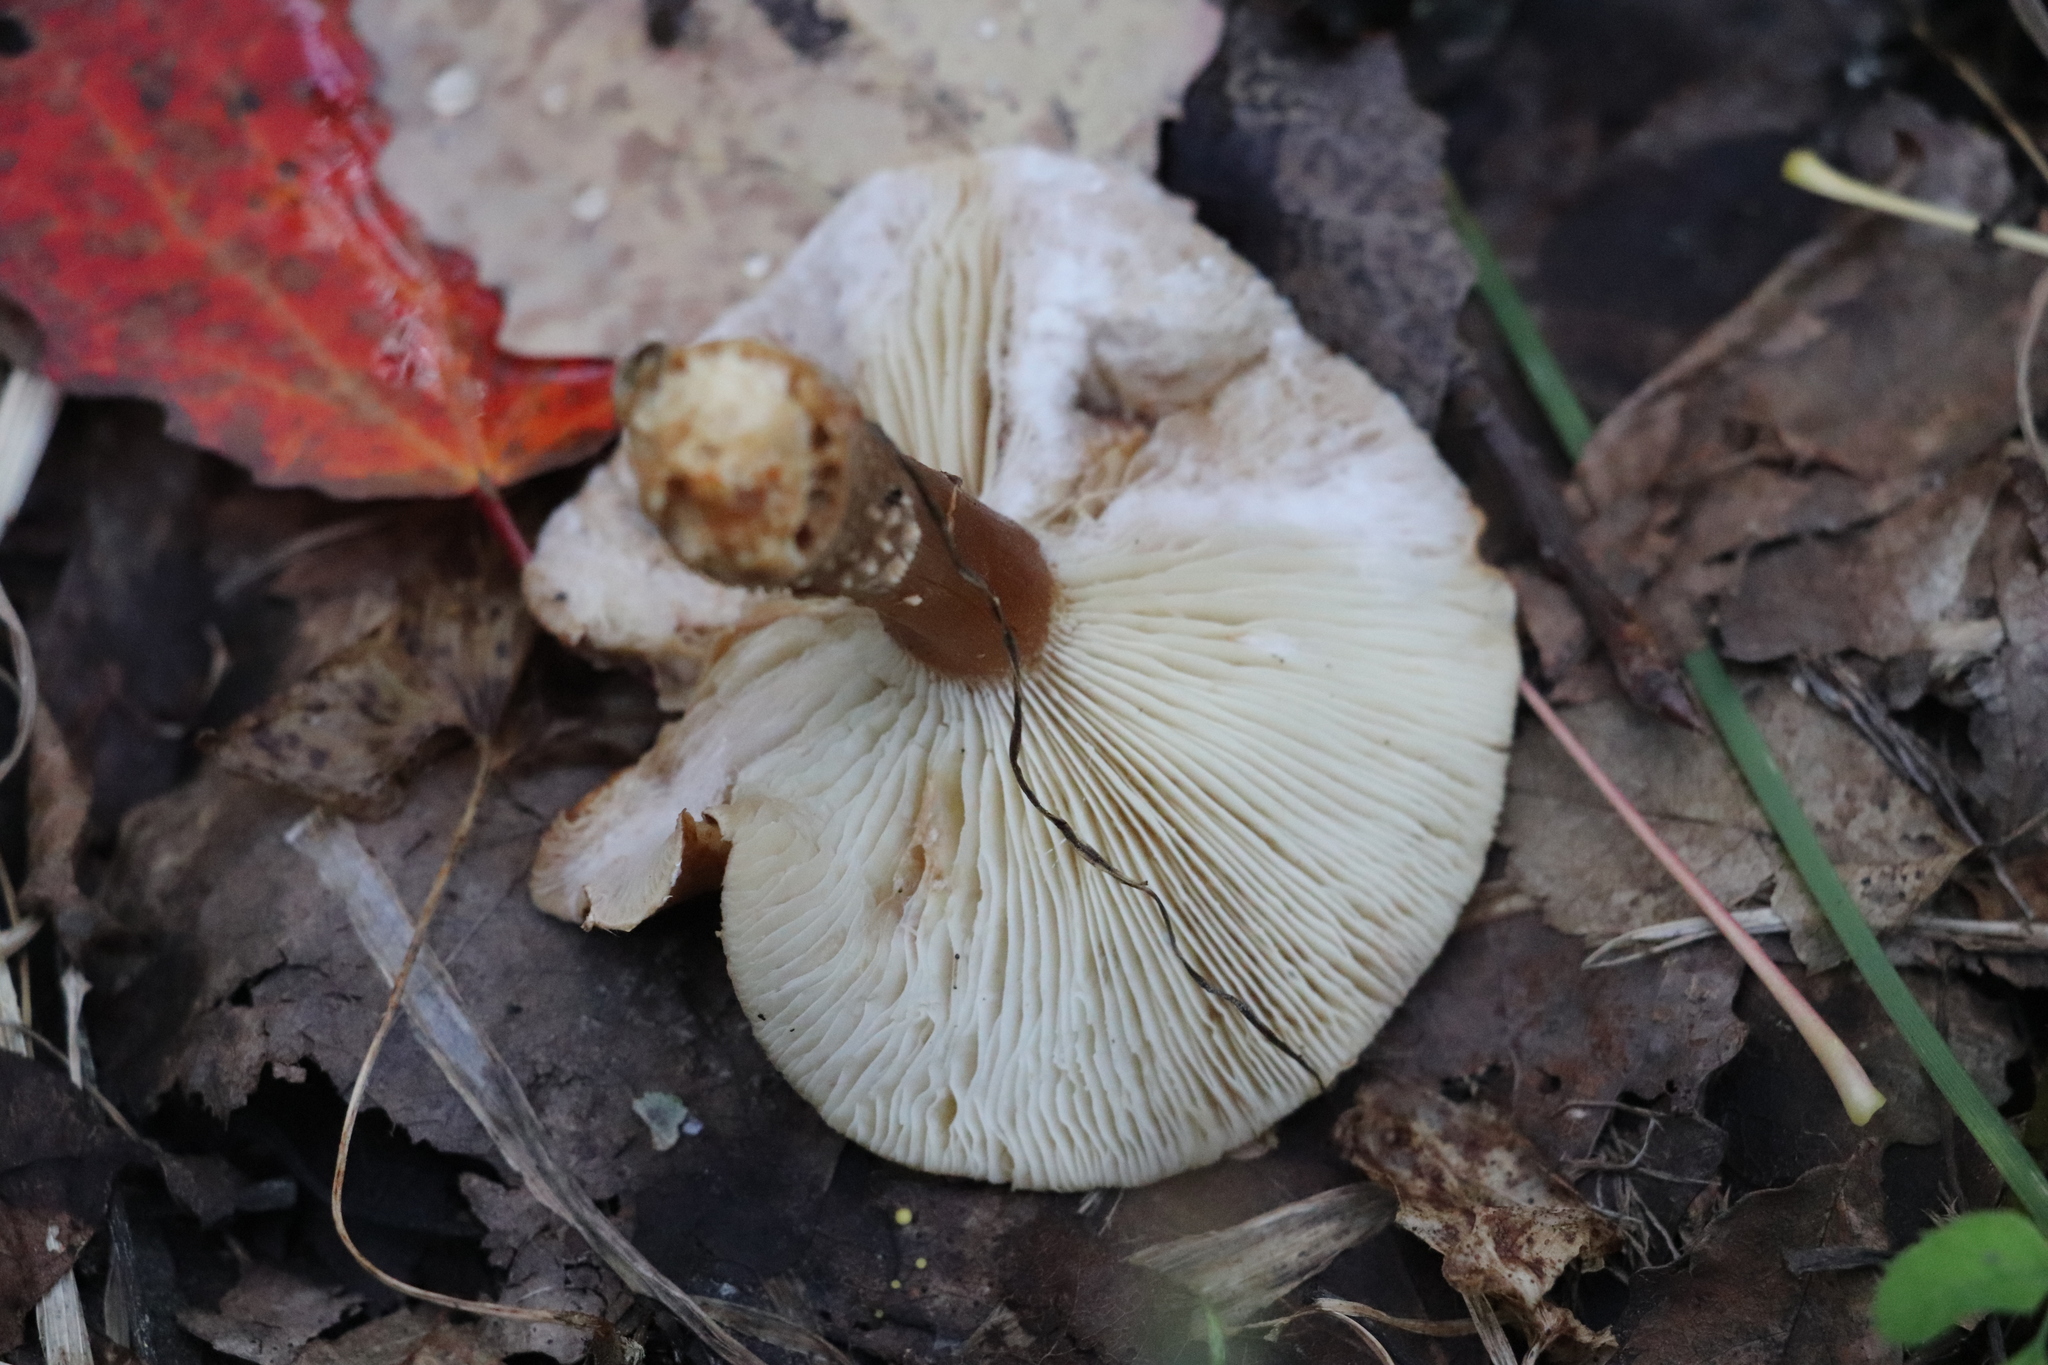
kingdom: Fungi
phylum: Basidiomycota
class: Agaricomycetes
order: Agaricales
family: Agaricaceae
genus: Cystodermella
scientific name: Cystodermella cinnabarina
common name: Cinnabar powdercap
